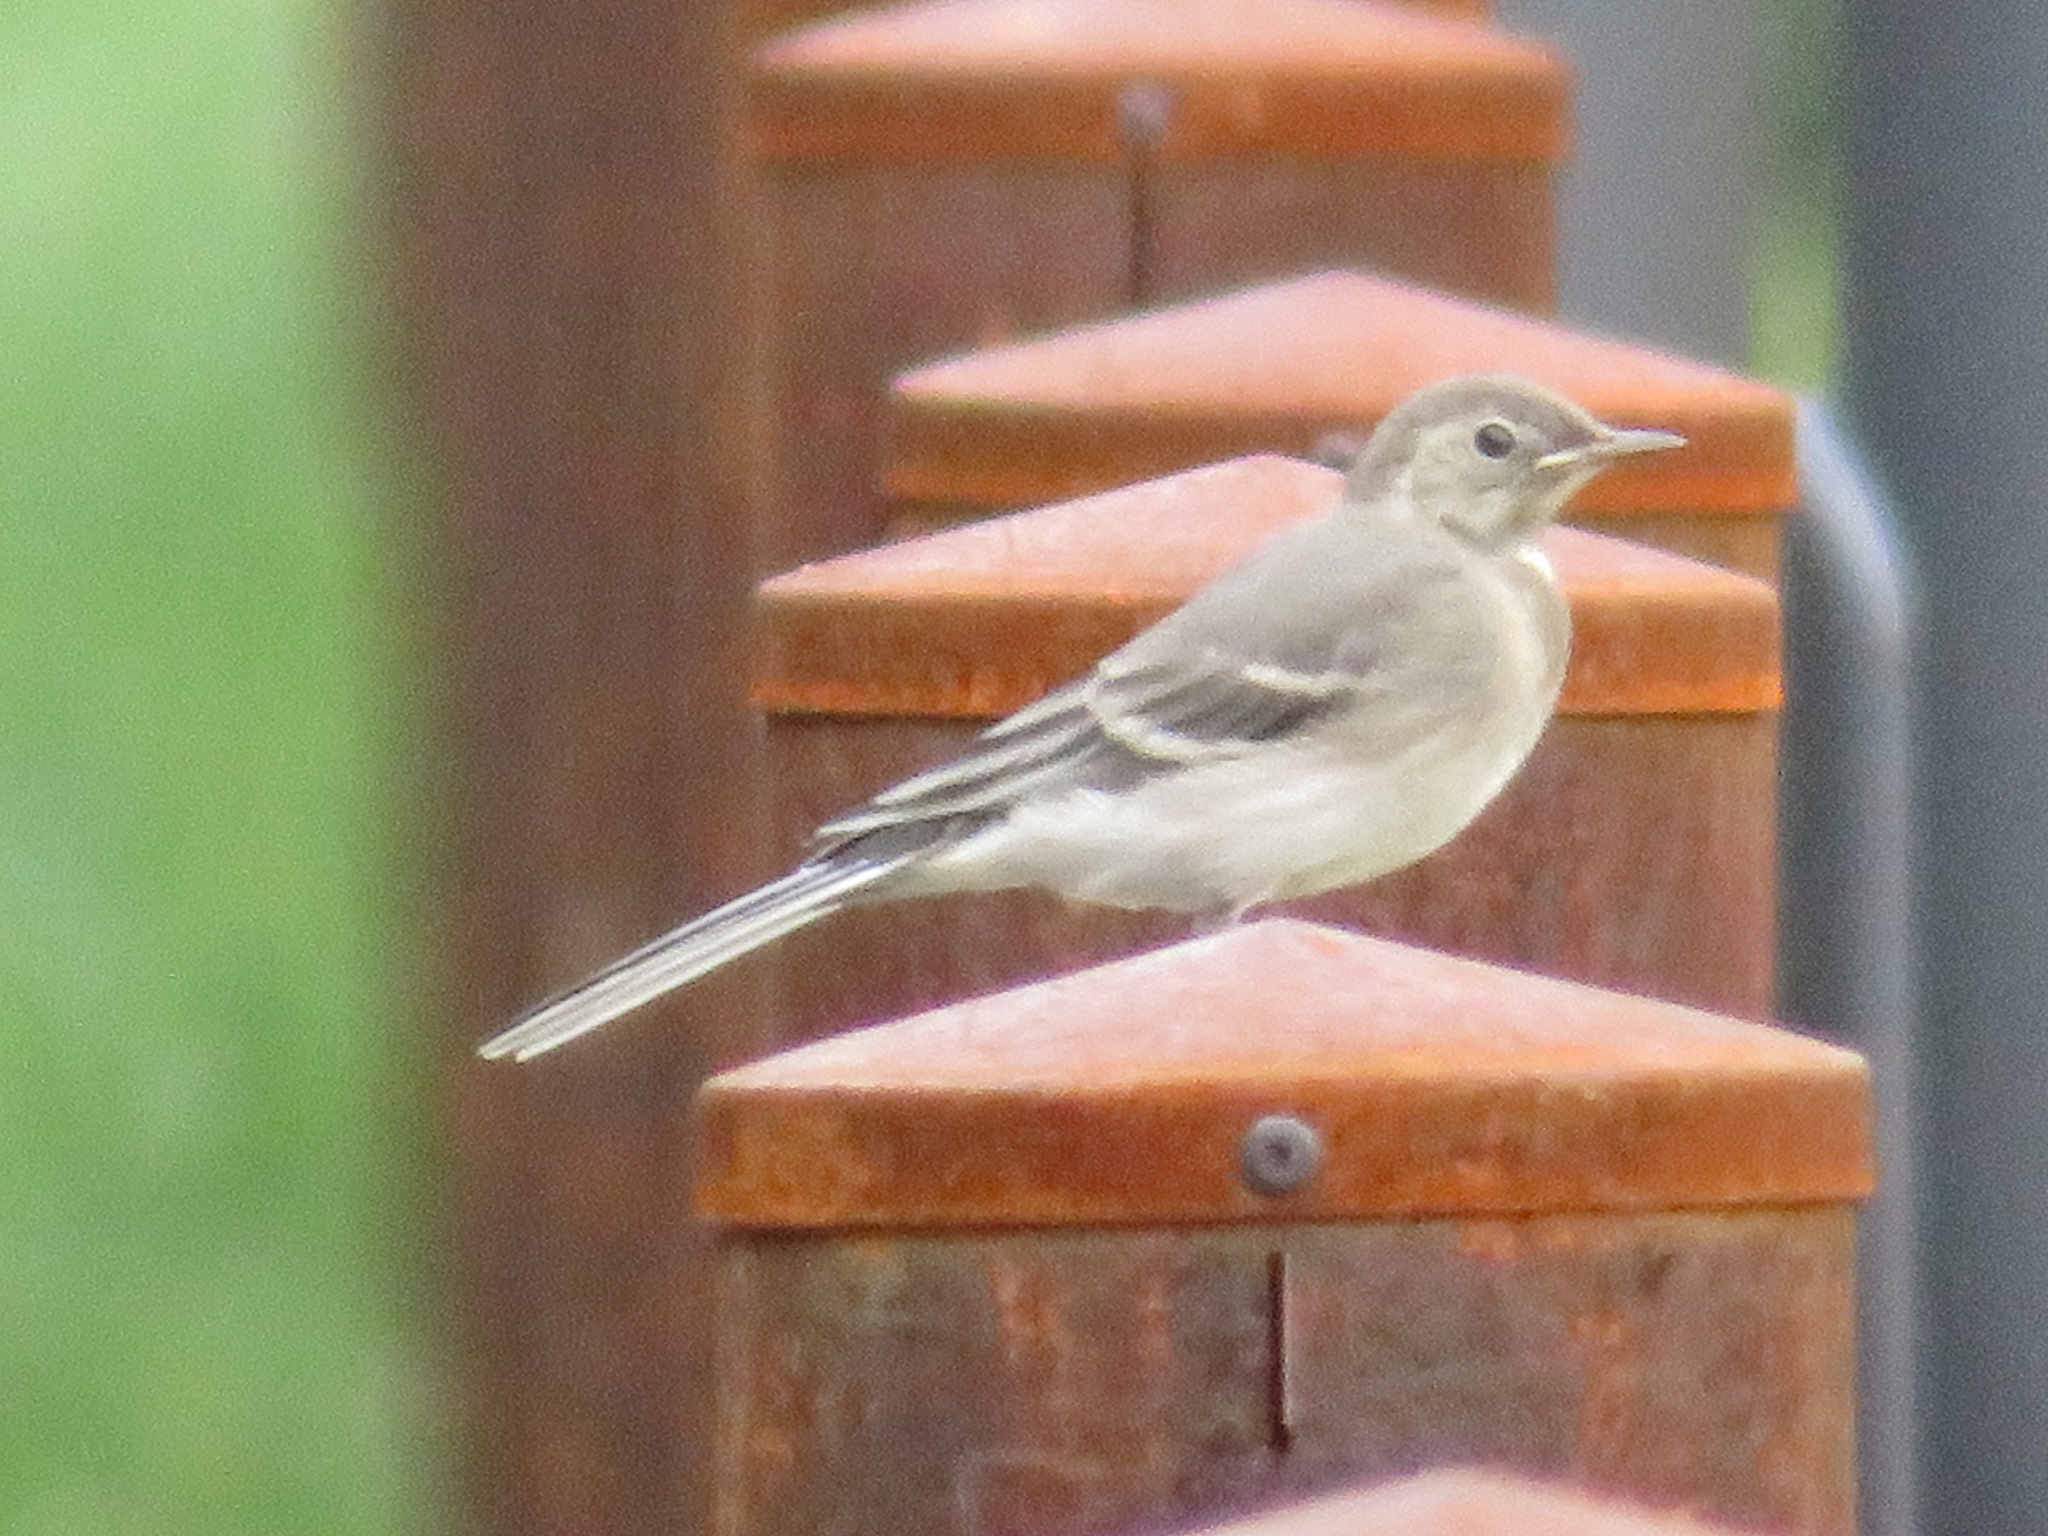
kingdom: Animalia
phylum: Chordata
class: Aves
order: Passeriformes
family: Motacillidae
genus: Motacilla
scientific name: Motacilla alba
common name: White wagtail
